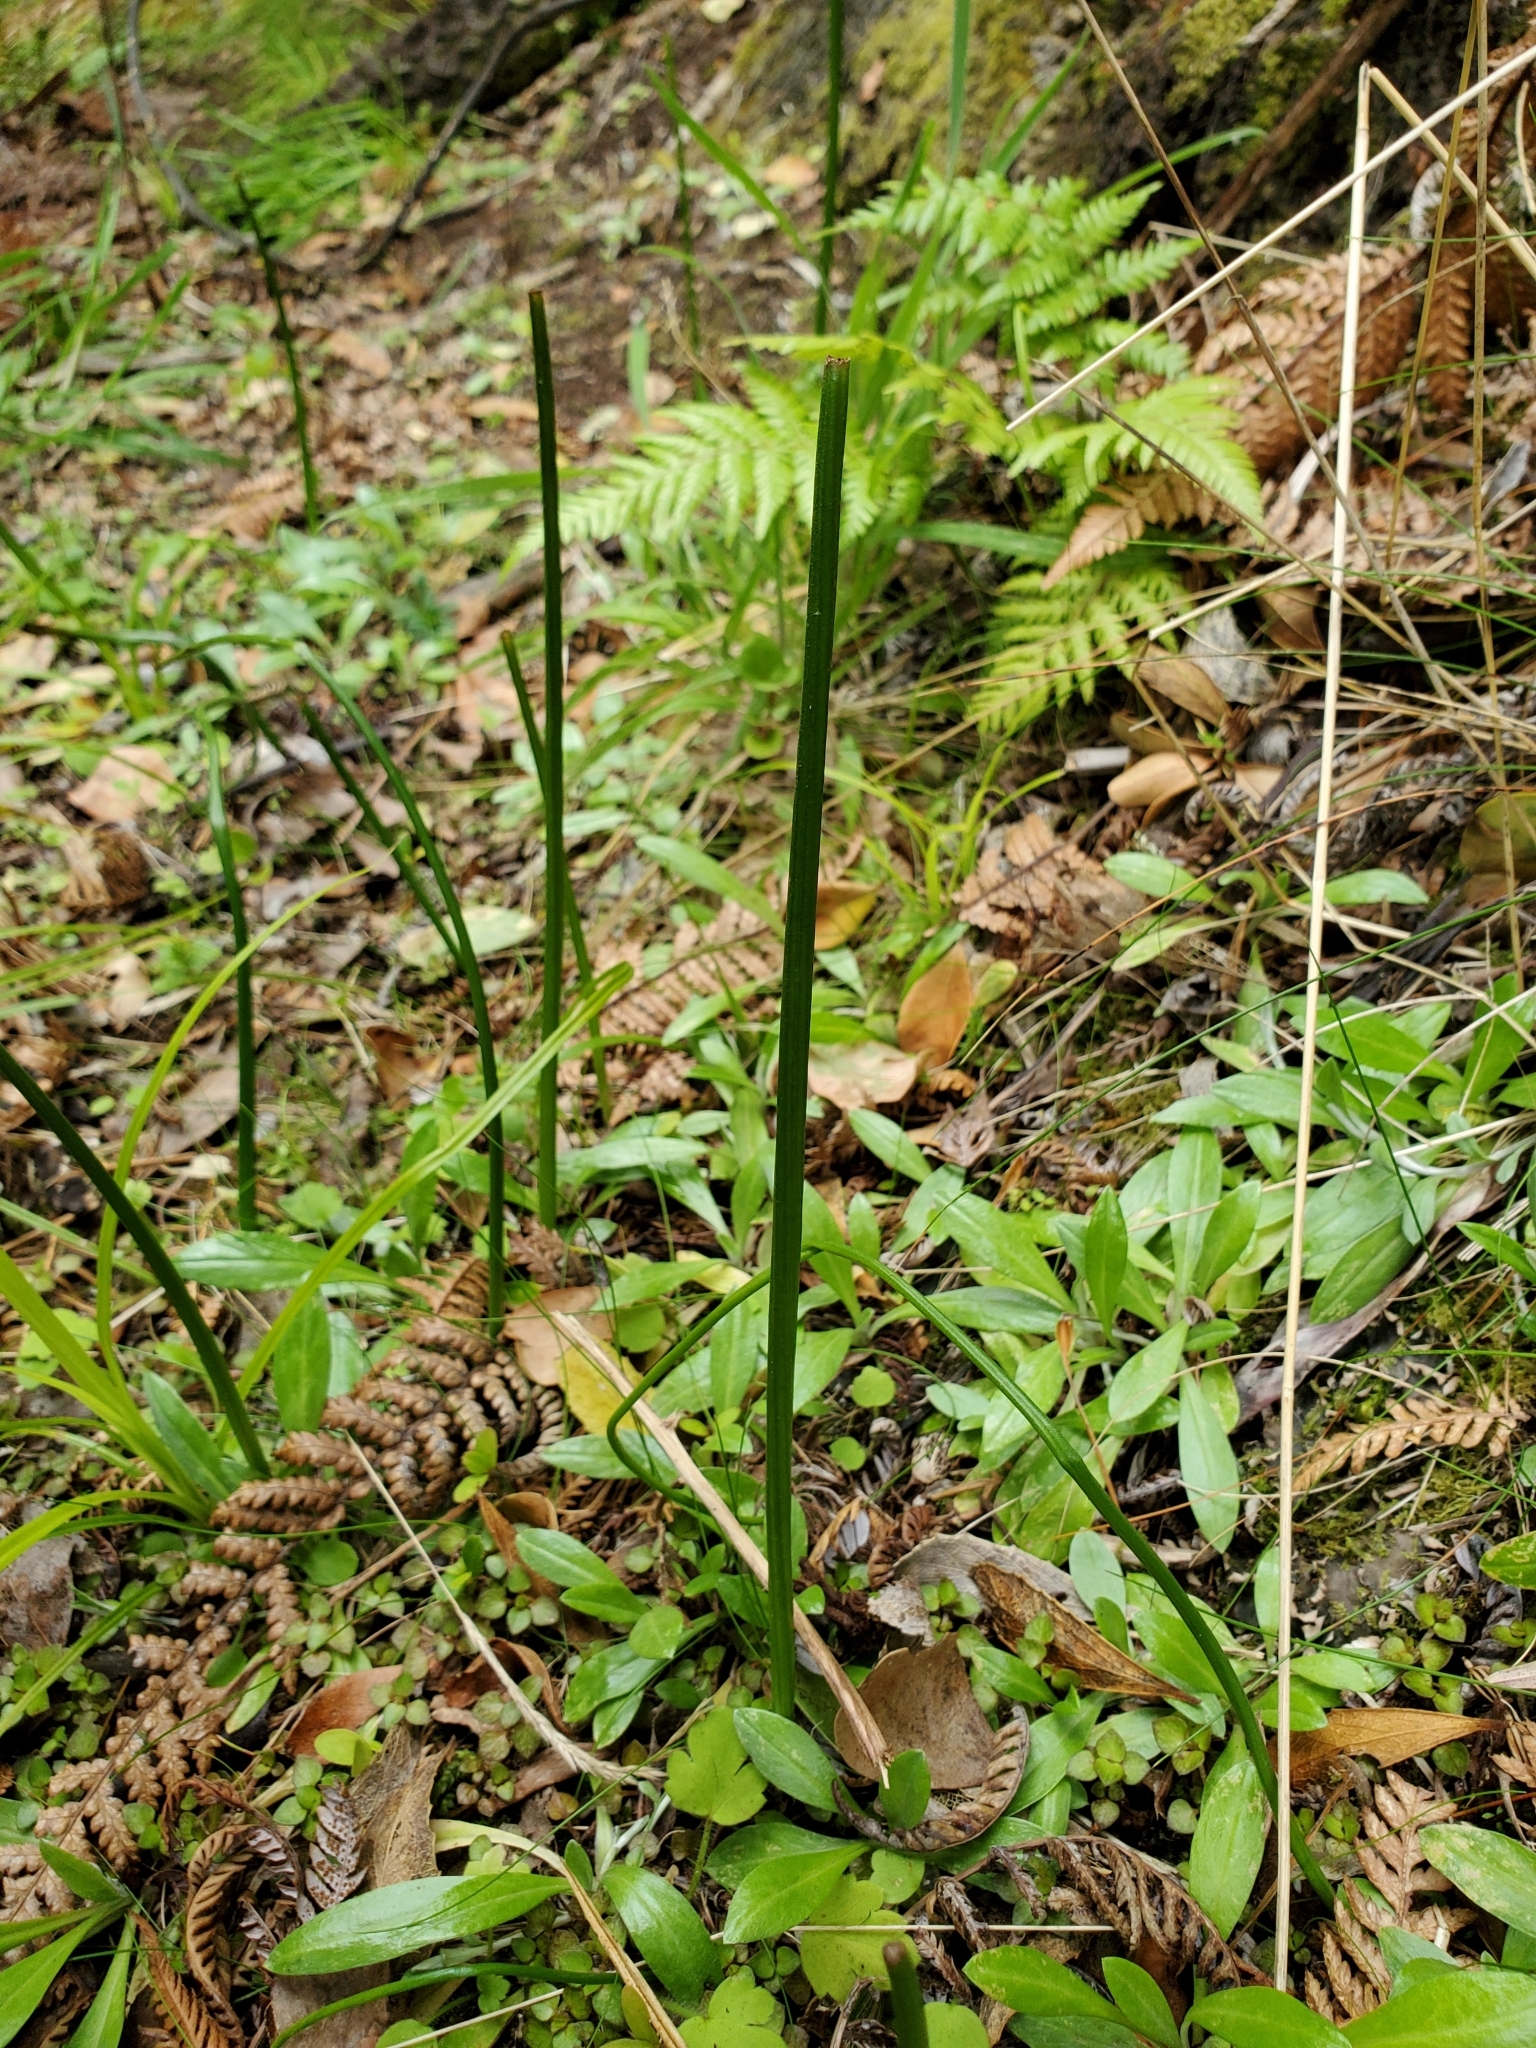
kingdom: Plantae
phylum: Tracheophyta
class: Liliopsida
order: Asparagales
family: Orchidaceae
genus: Microtis
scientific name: Microtis unifolia
